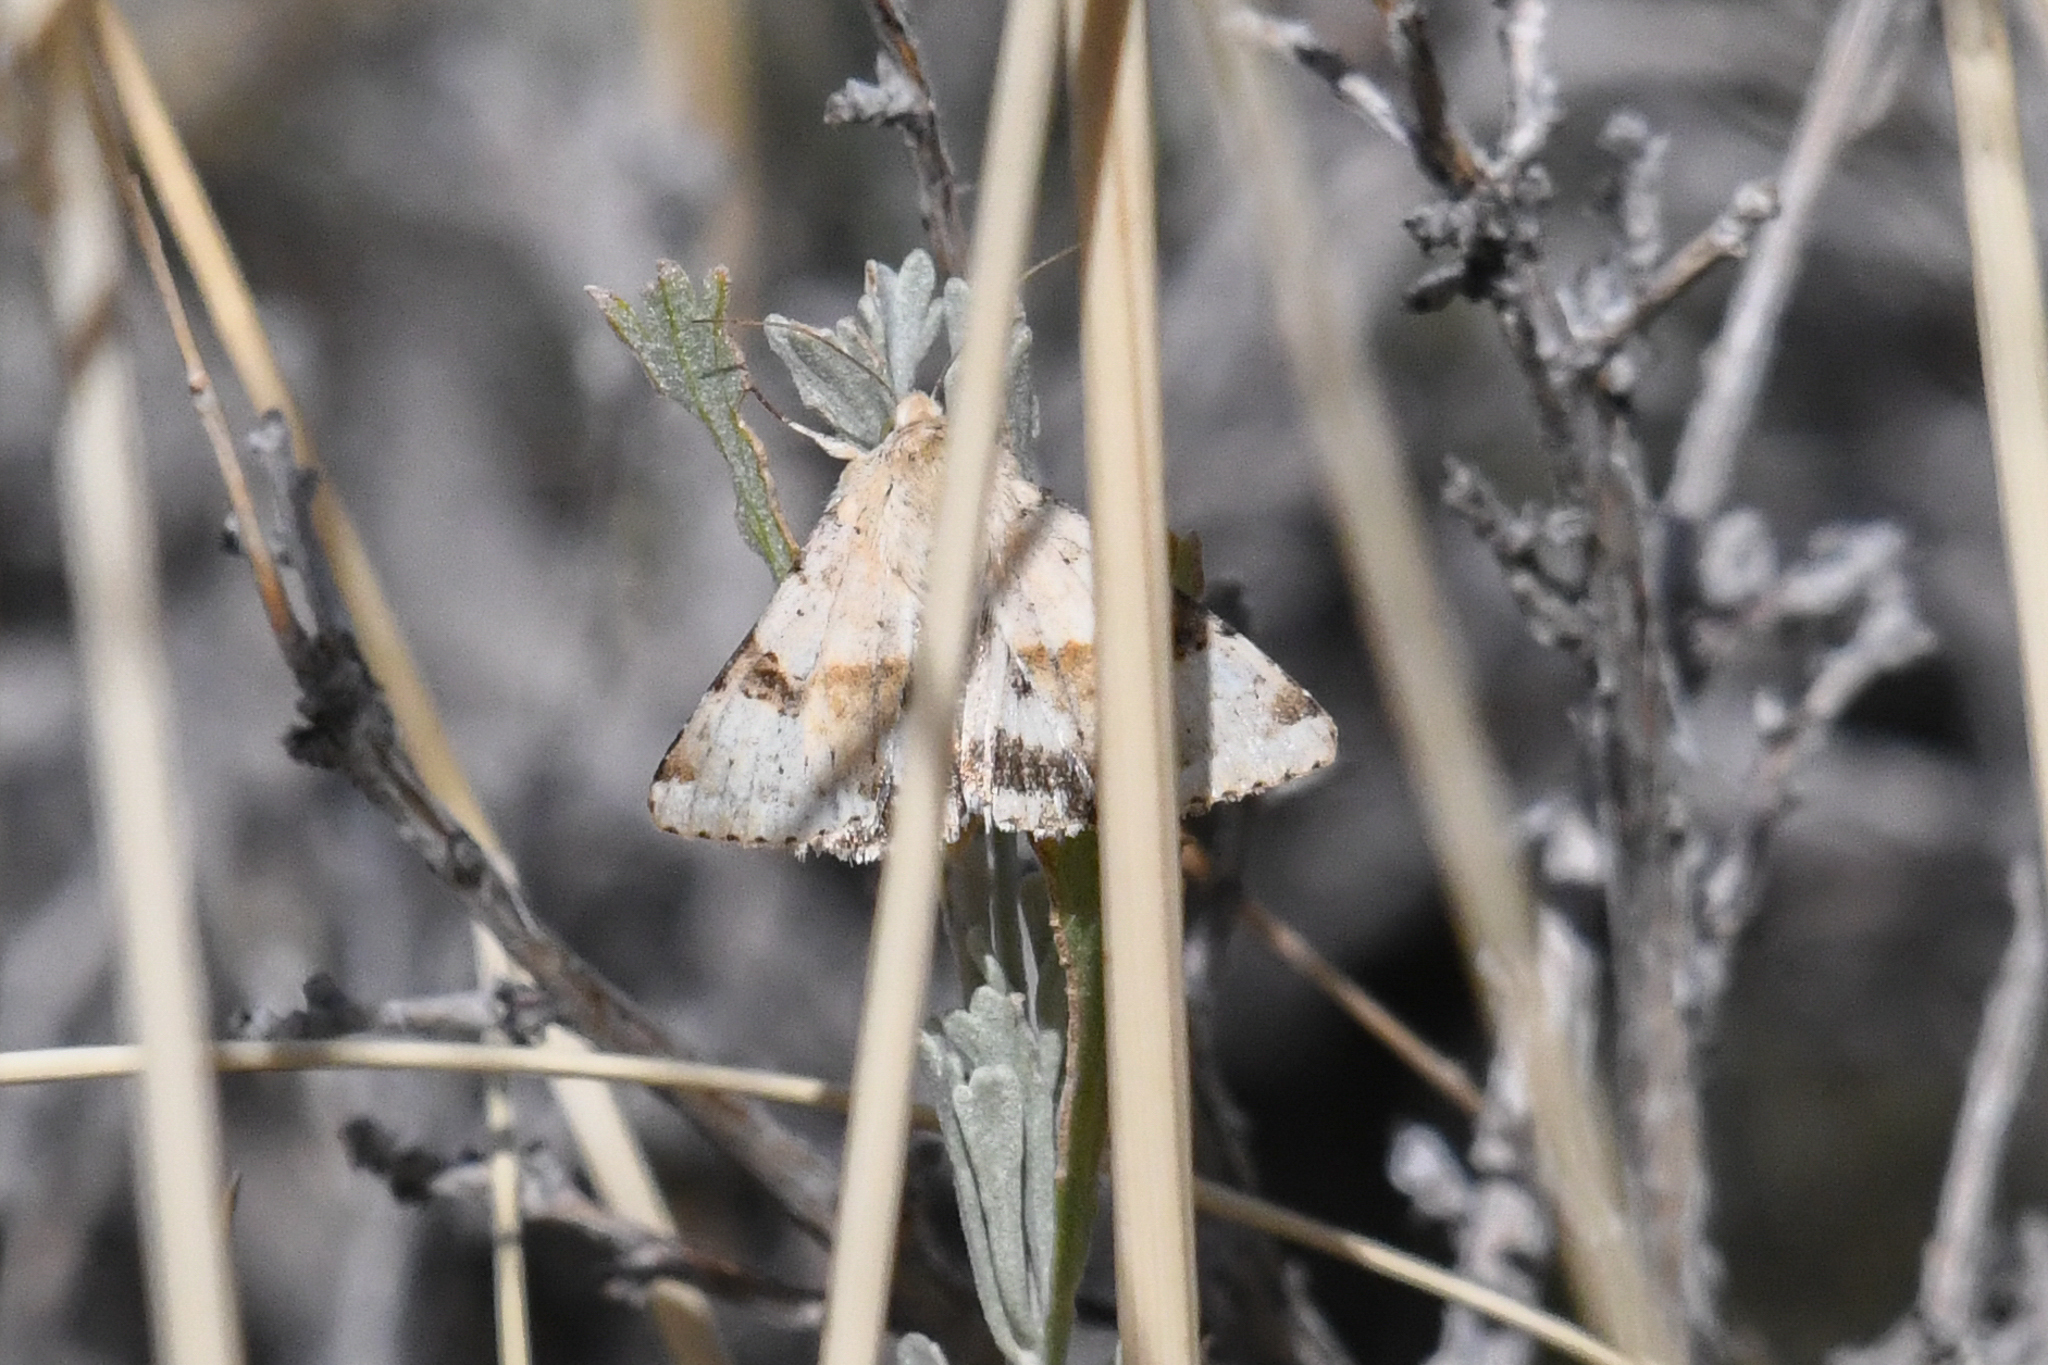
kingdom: Animalia
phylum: Arthropoda
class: Insecta
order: Lepidoptera
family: Noctuidae
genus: Heliothis
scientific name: Heliothis phloxiphaga
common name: Darker spotted straw moth
